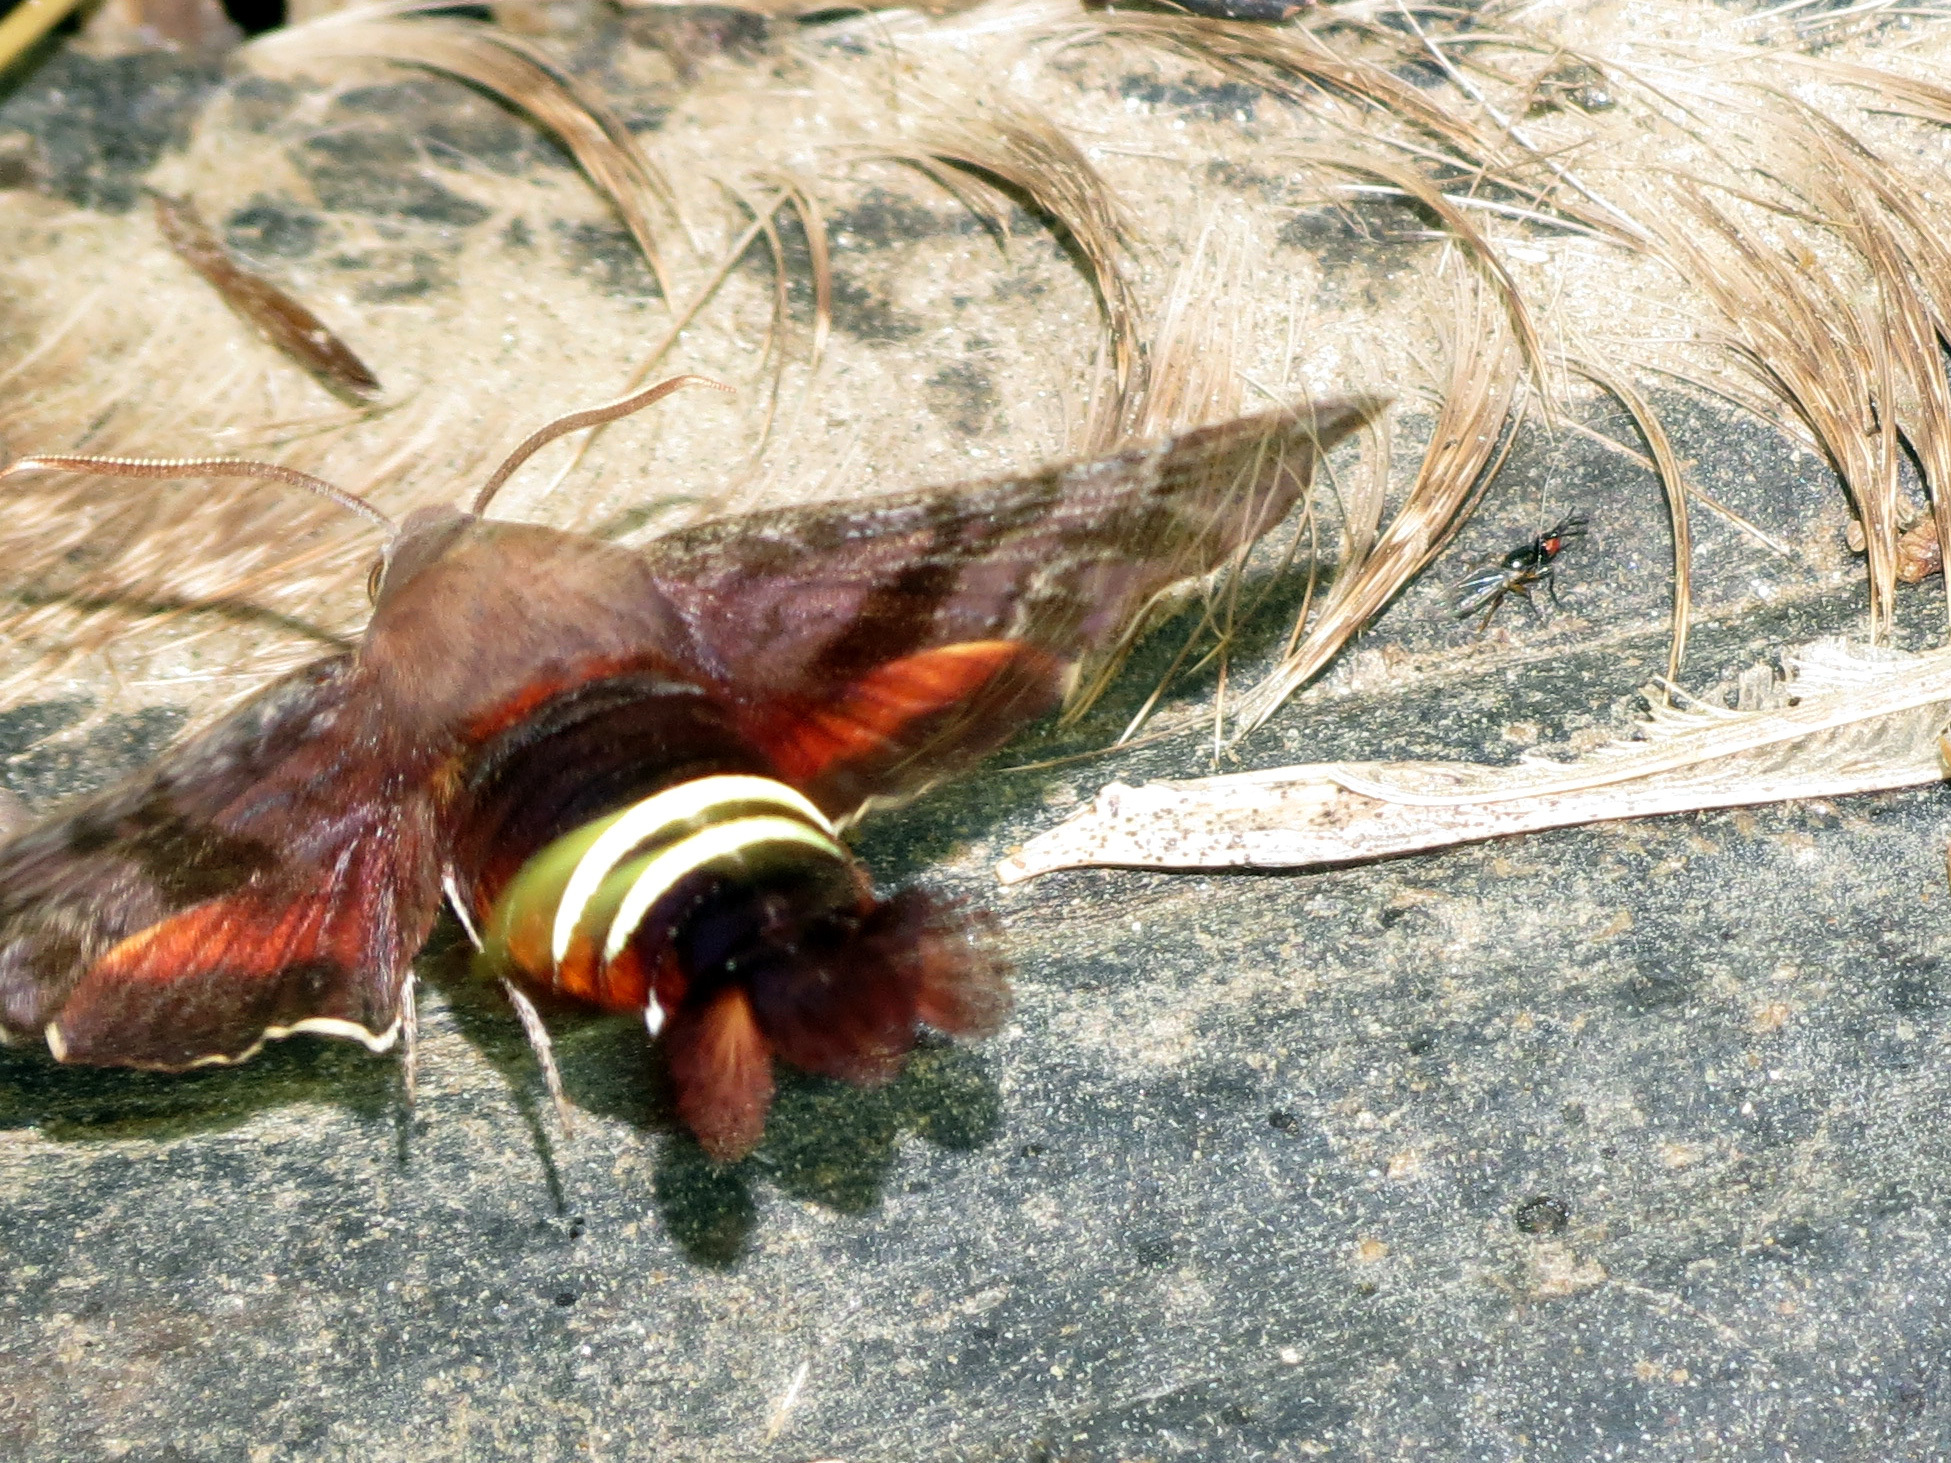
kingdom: Animalia
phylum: Arthropoda
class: Insecta
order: Lepidoptera
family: Sphingidae
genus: Amphion
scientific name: Amphion floridensis
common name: Nessus sphinx
